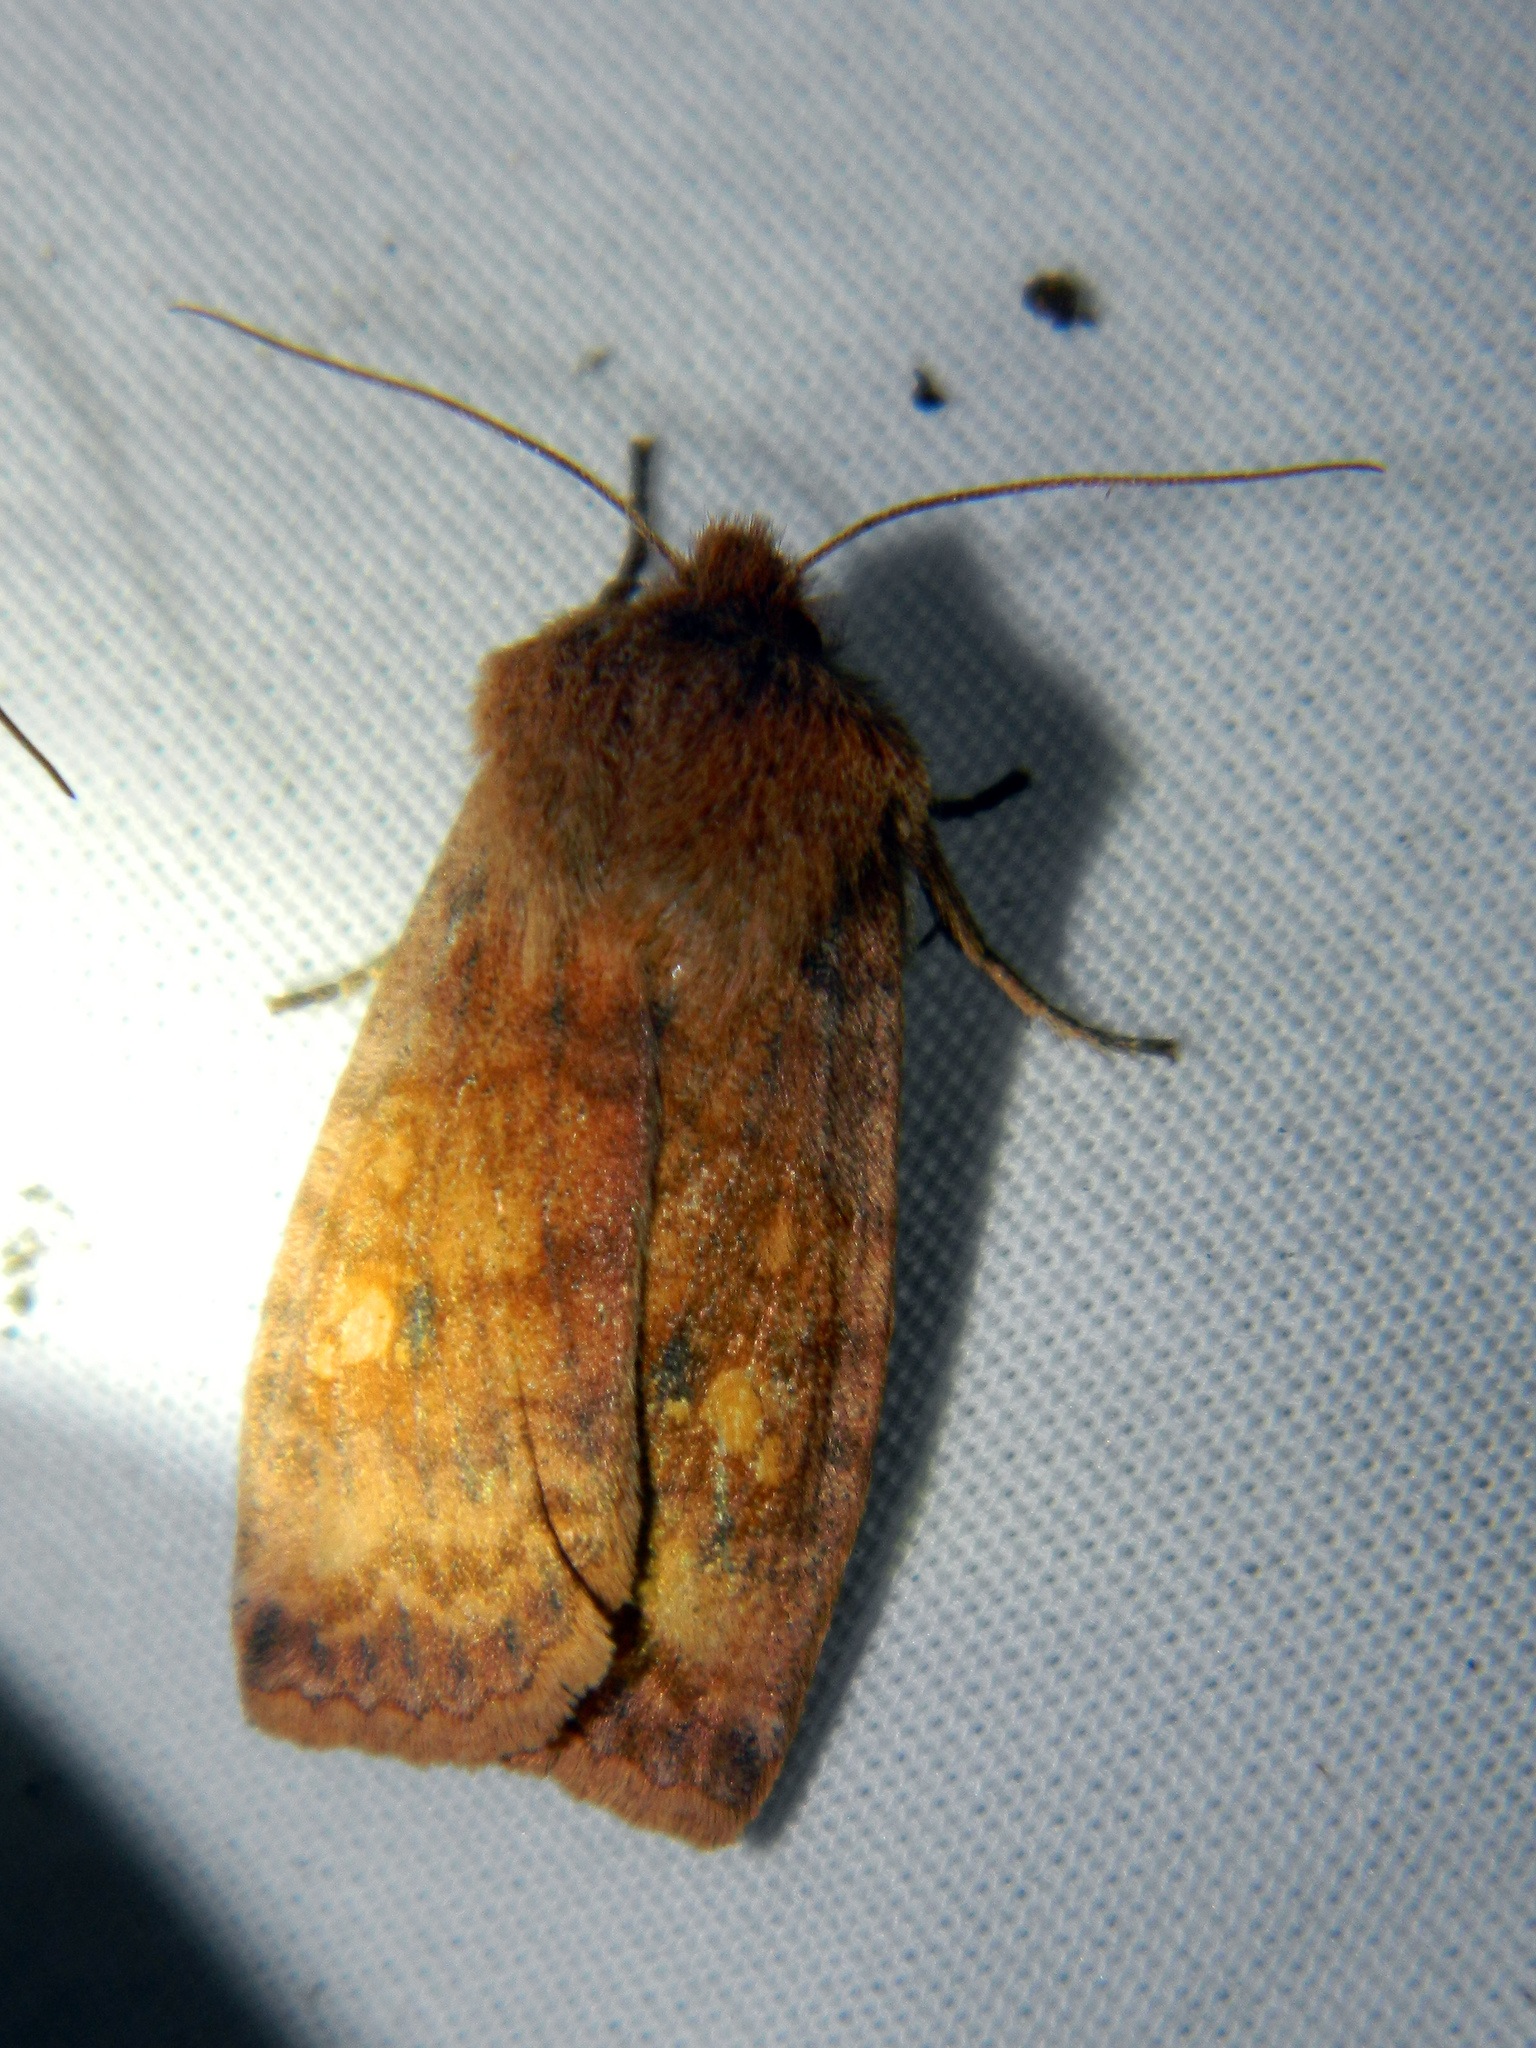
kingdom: Animalia
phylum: Arthropoda
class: Insecta
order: Lepidoptera
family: Noctuidae
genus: Eupsilia
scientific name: Eupsilia tristigmata
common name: Three-spotted sallow
